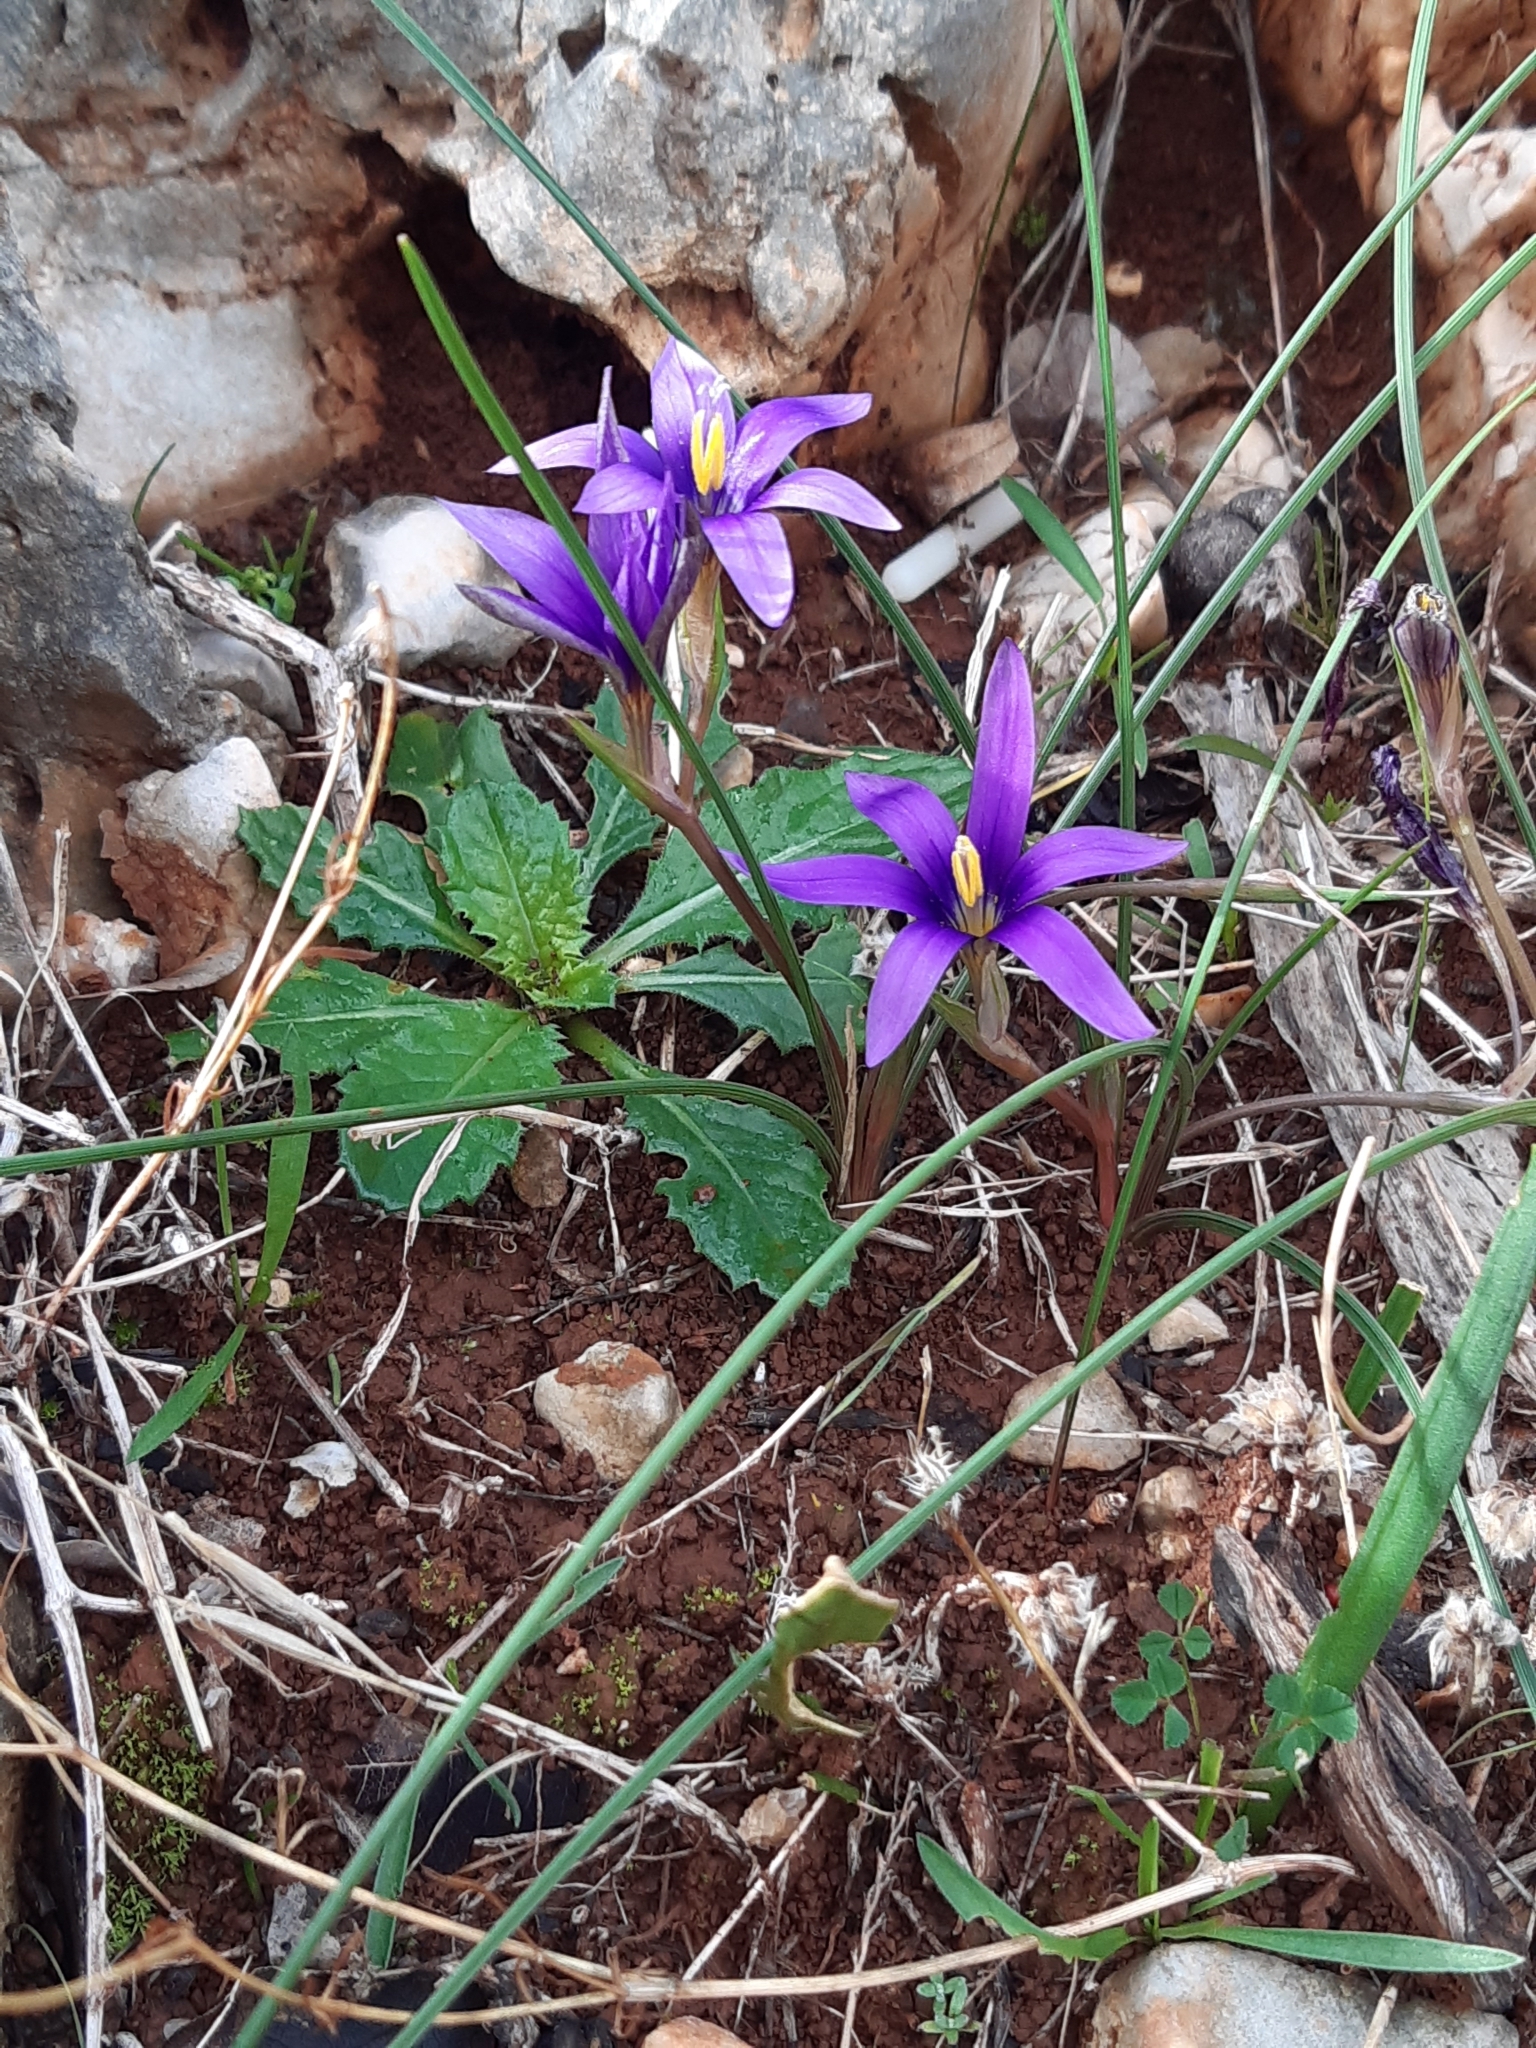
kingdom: Plantae
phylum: Tracheophyta
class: Liliopsida
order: Asparagales
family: Iridaceae
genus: Romulea
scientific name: Romulea tempskyana
